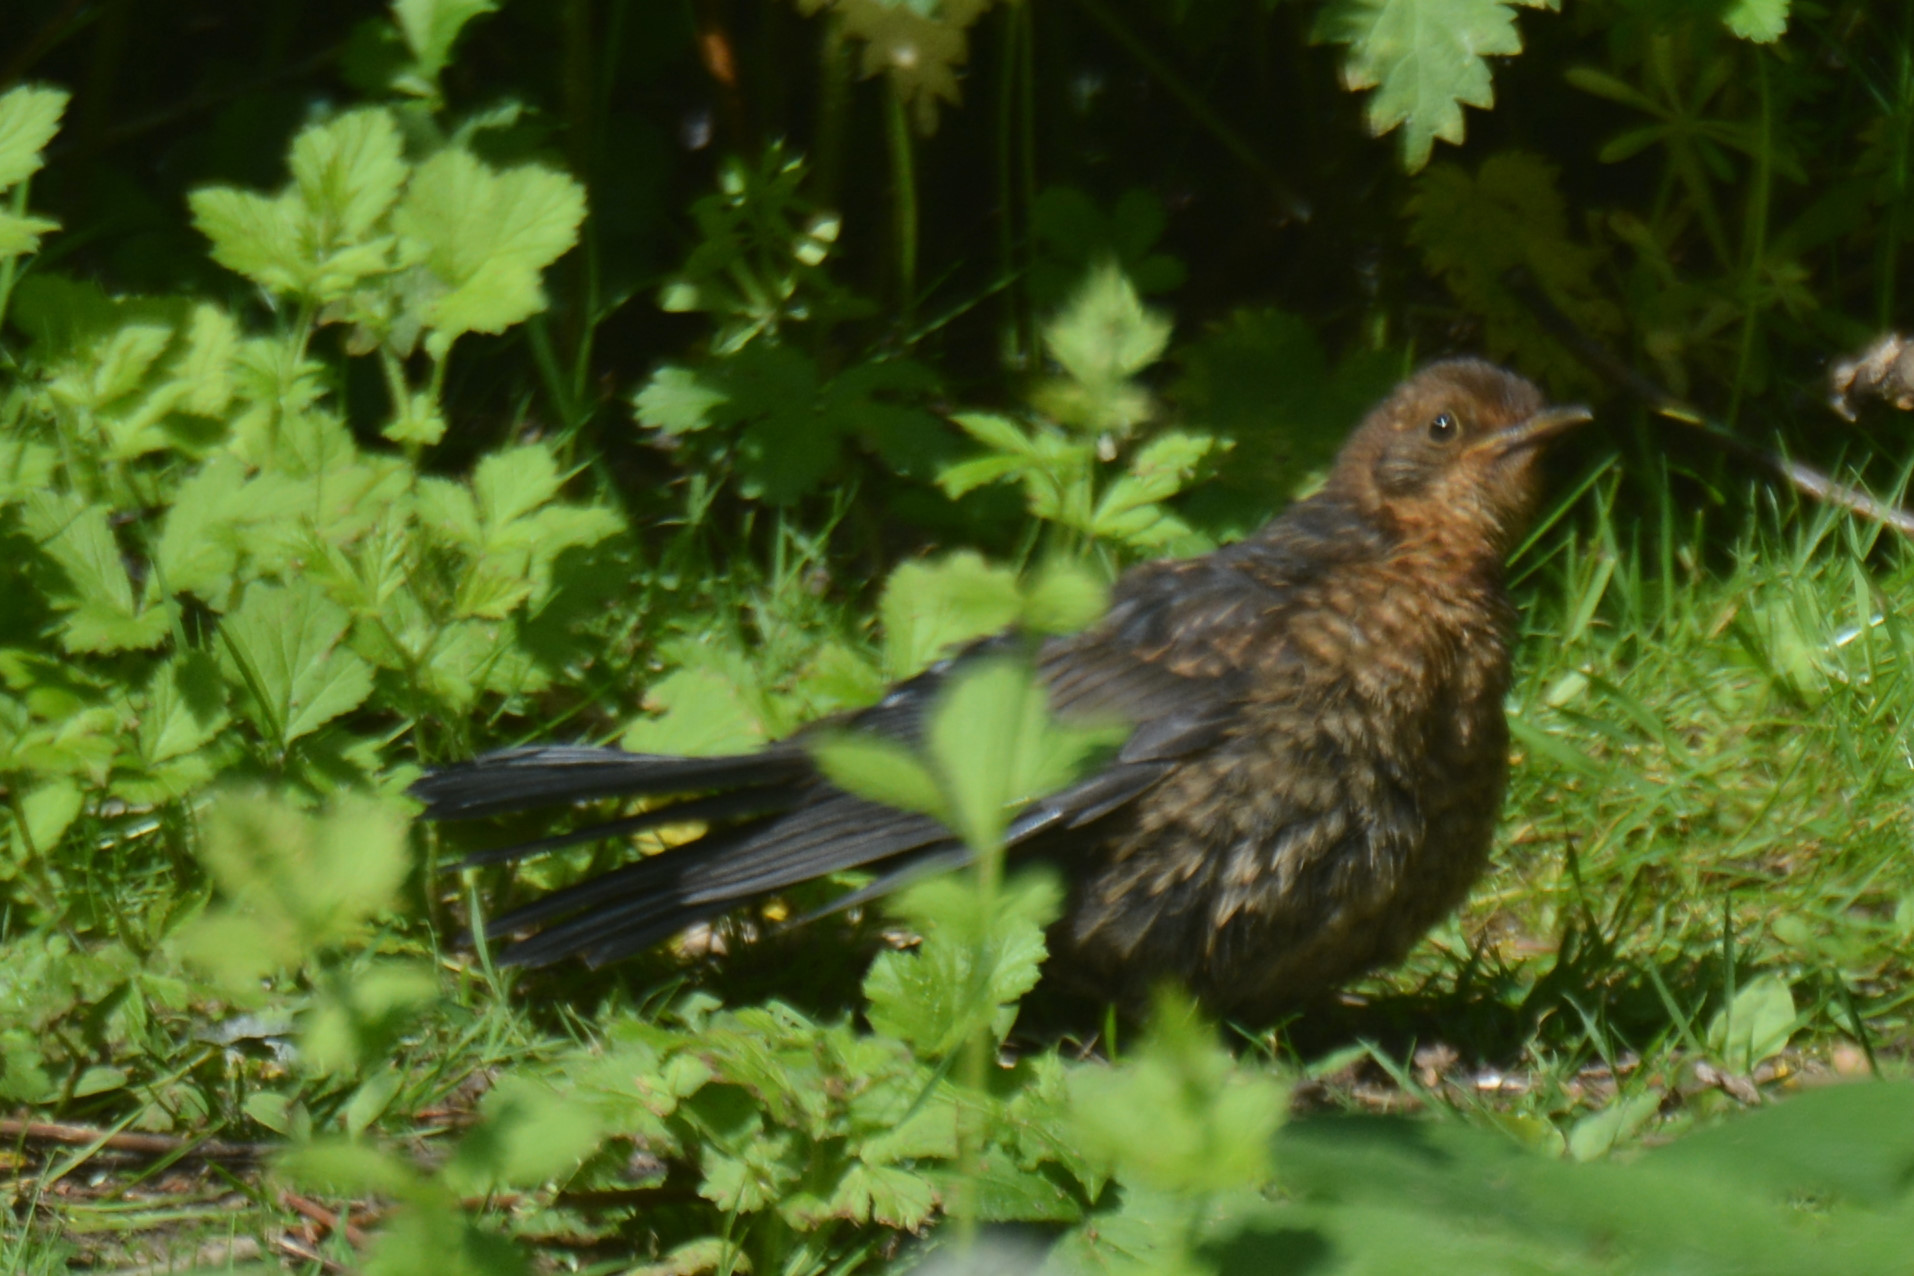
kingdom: Animalia
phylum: Chordata
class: Aves
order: Passeriformes
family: Turdidae
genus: Turdus
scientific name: Turdus merula
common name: Common blackbird
